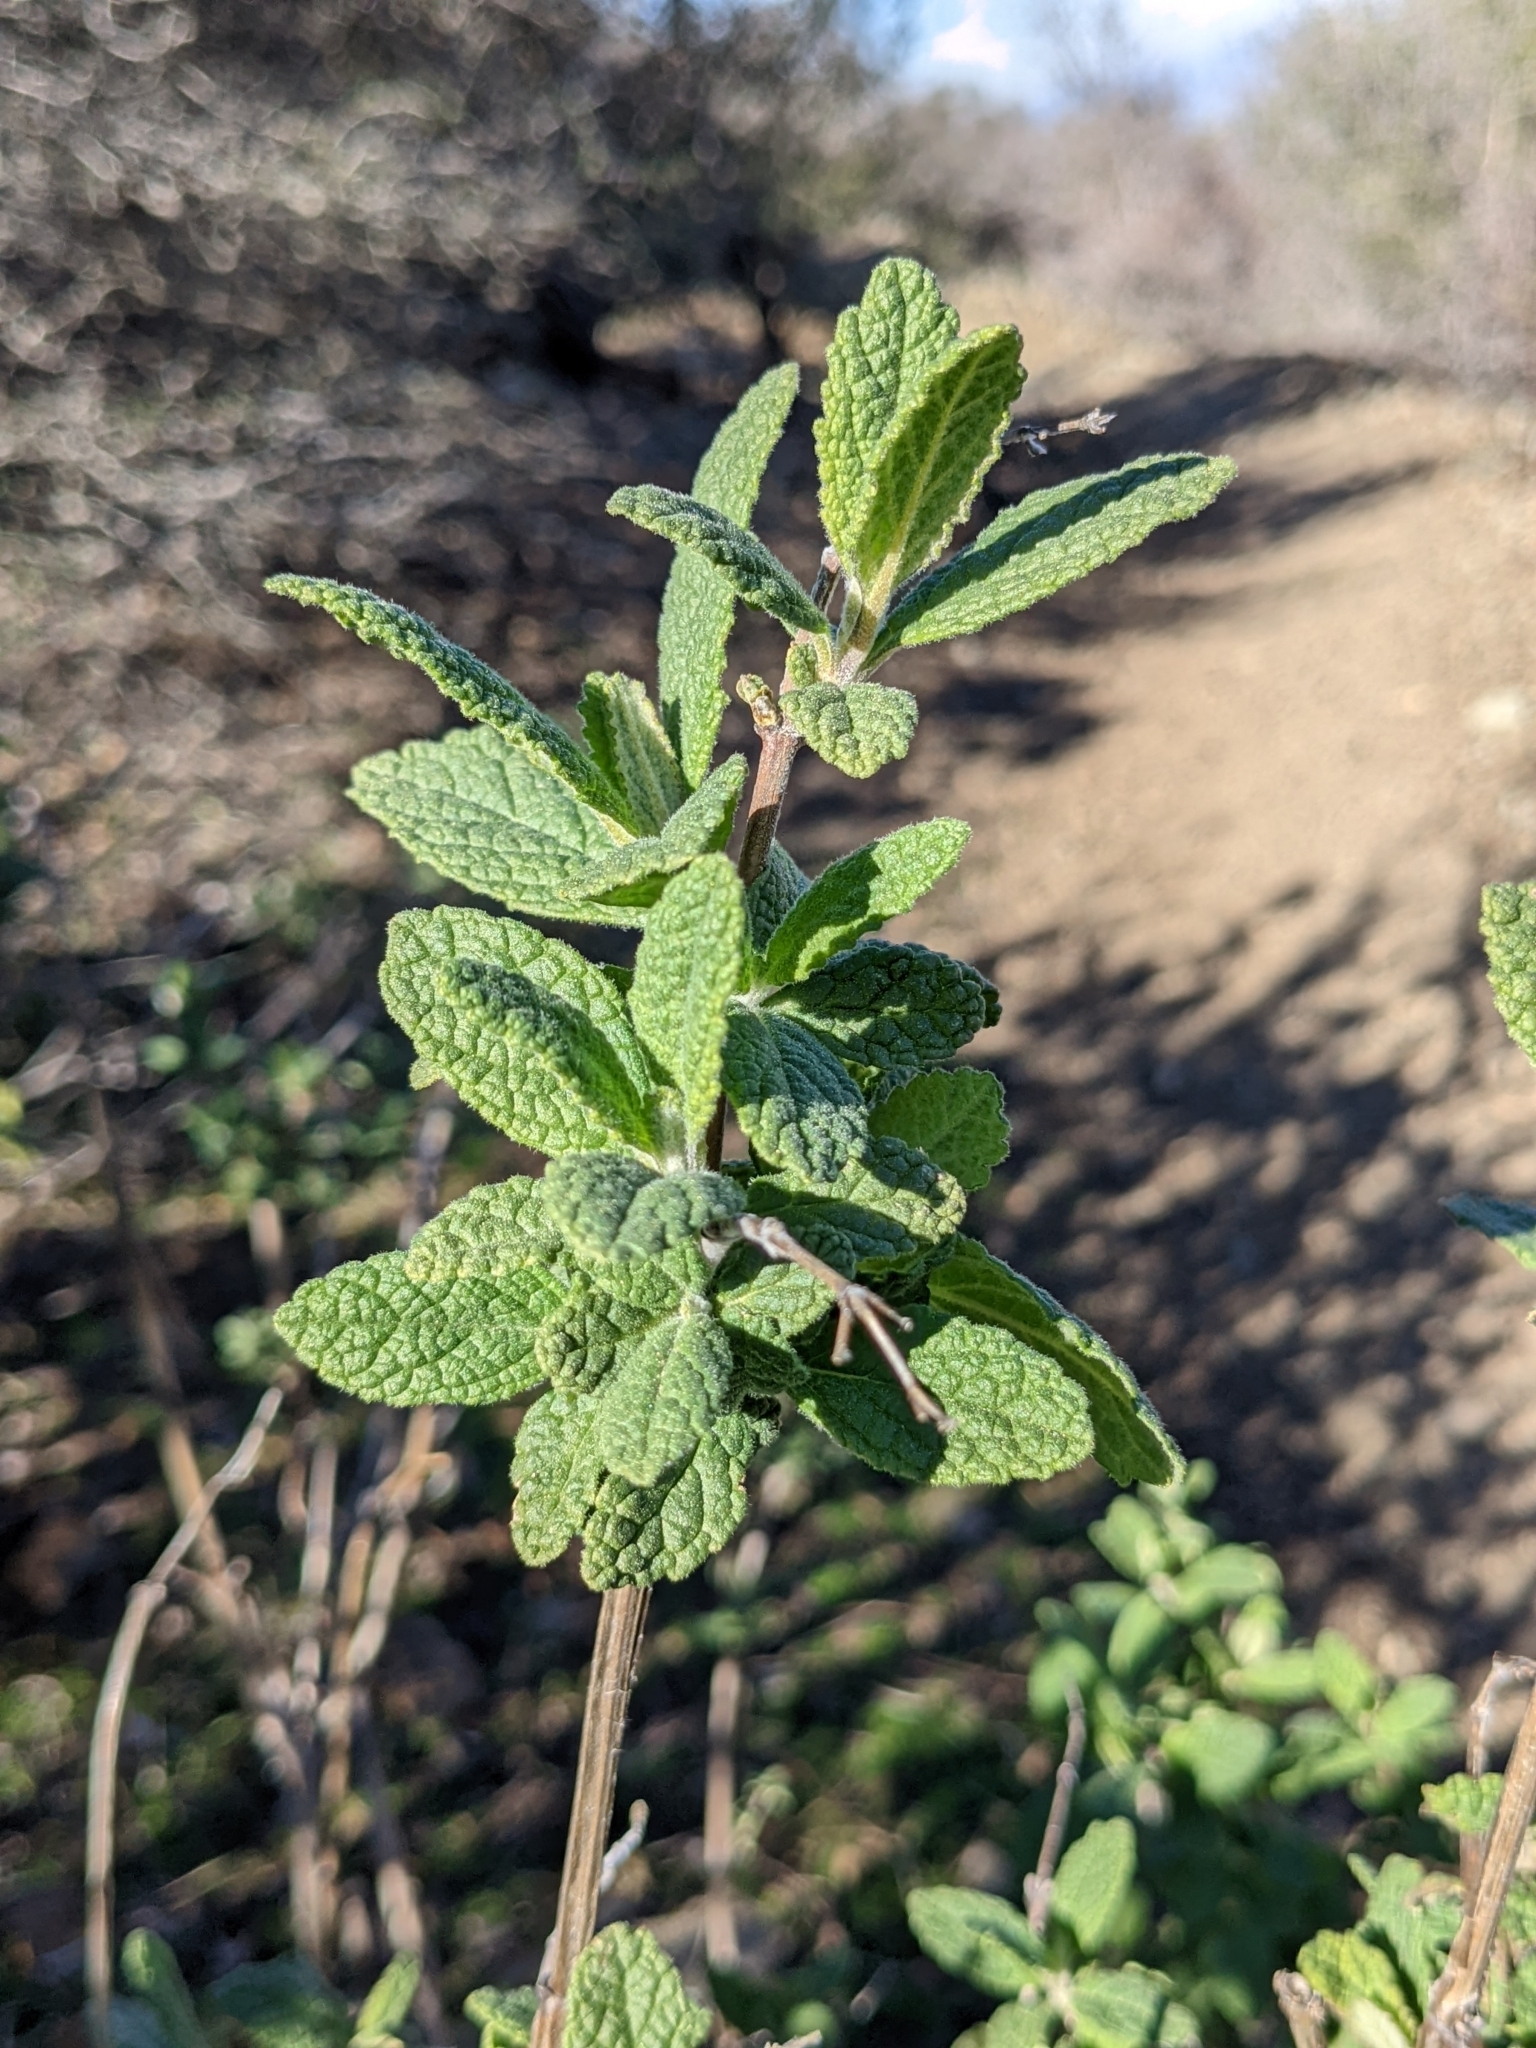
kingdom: Plantae
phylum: Tracheophyta
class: Magnoliopsida
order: Lamiales
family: Lamiaceae
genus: Lepechinia
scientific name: Lepechinia calycina
